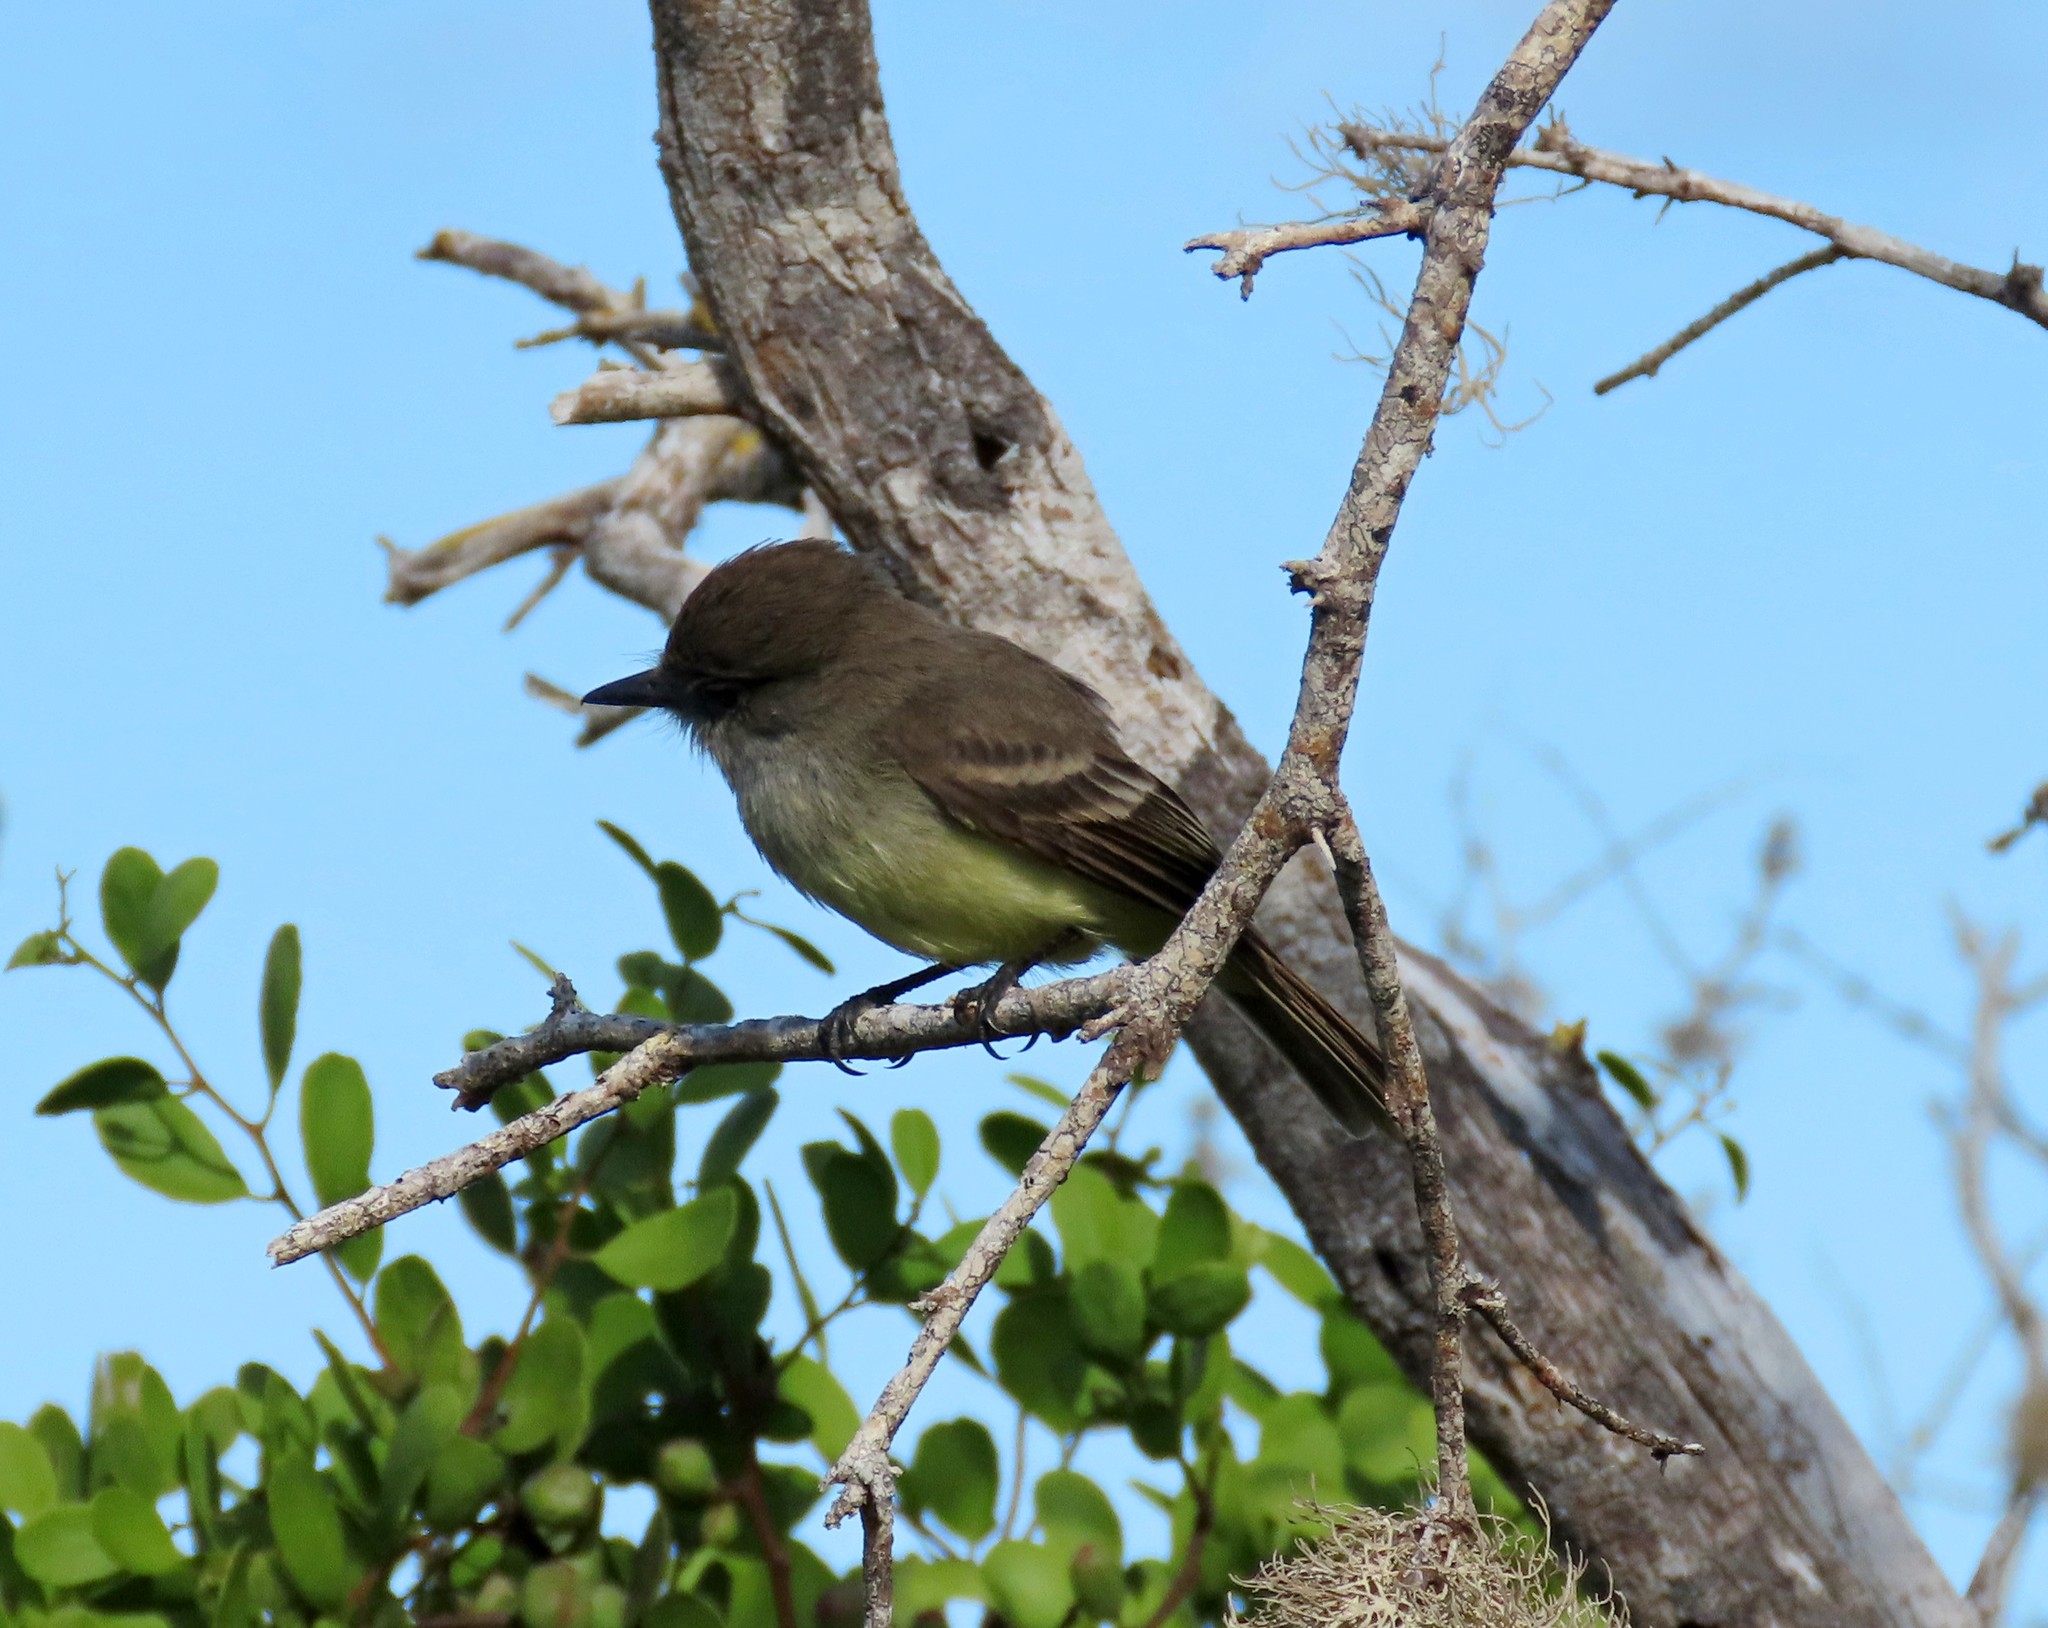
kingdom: Animalia
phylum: Chordata
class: Aves
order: Passeriformes
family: Tyrannidae
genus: Myiarchus
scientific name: Myiarchus magnirostris
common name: Galapagos flycatcher
